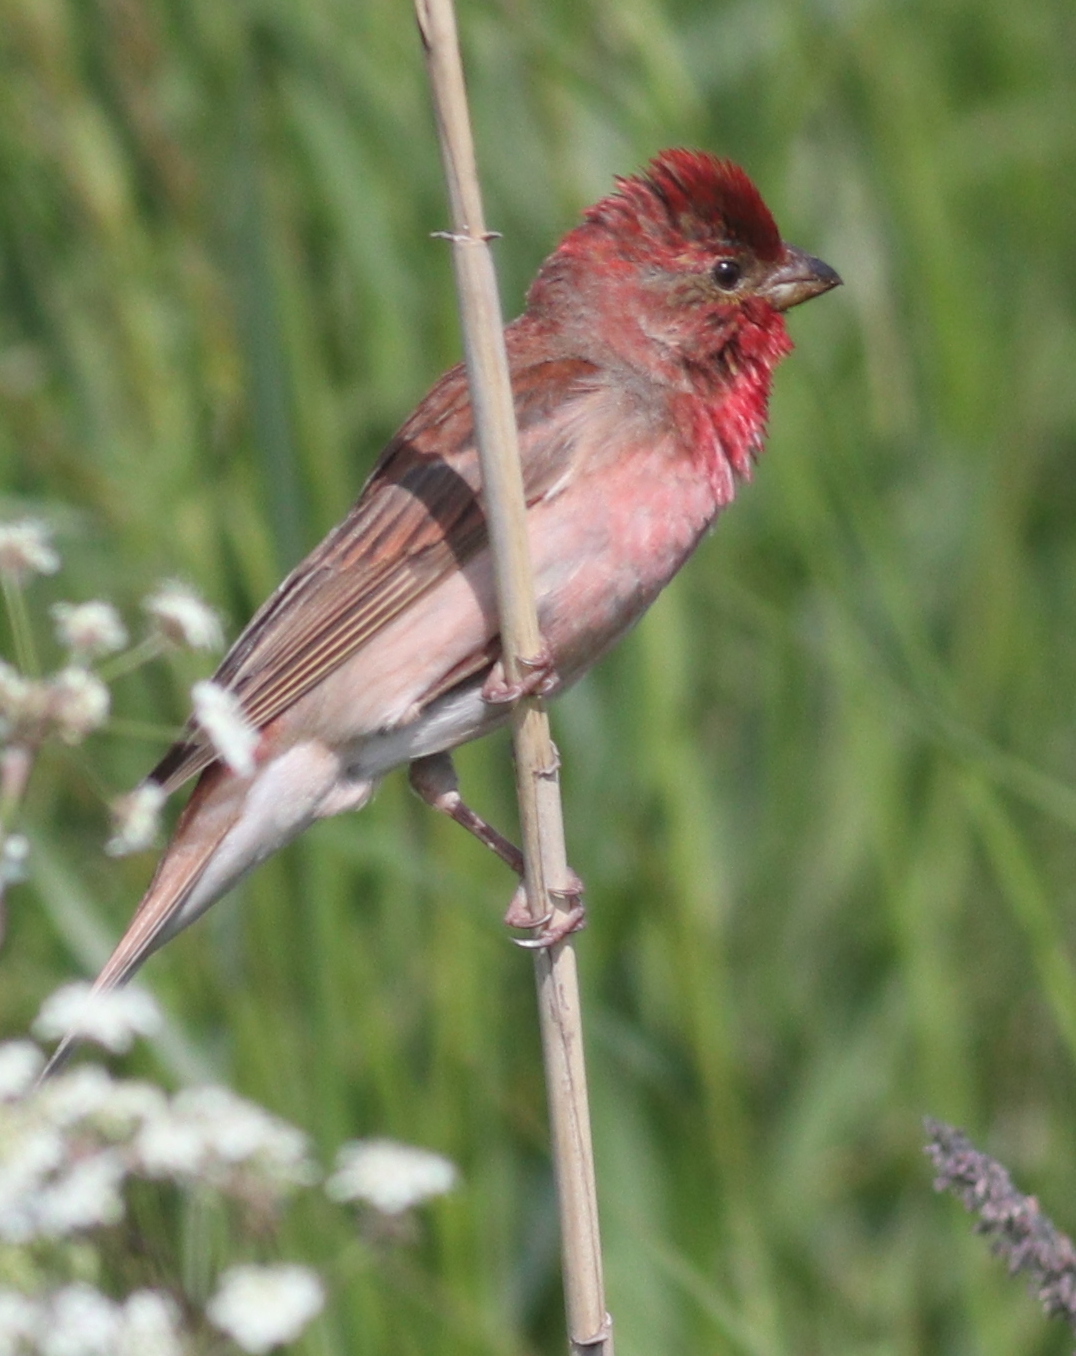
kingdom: Animalia
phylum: Chordata
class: Aves
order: Passeriformes
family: Fringillidae
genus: Carpodacus
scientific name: Carpodacus erythrinus
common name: Common rosefinch
